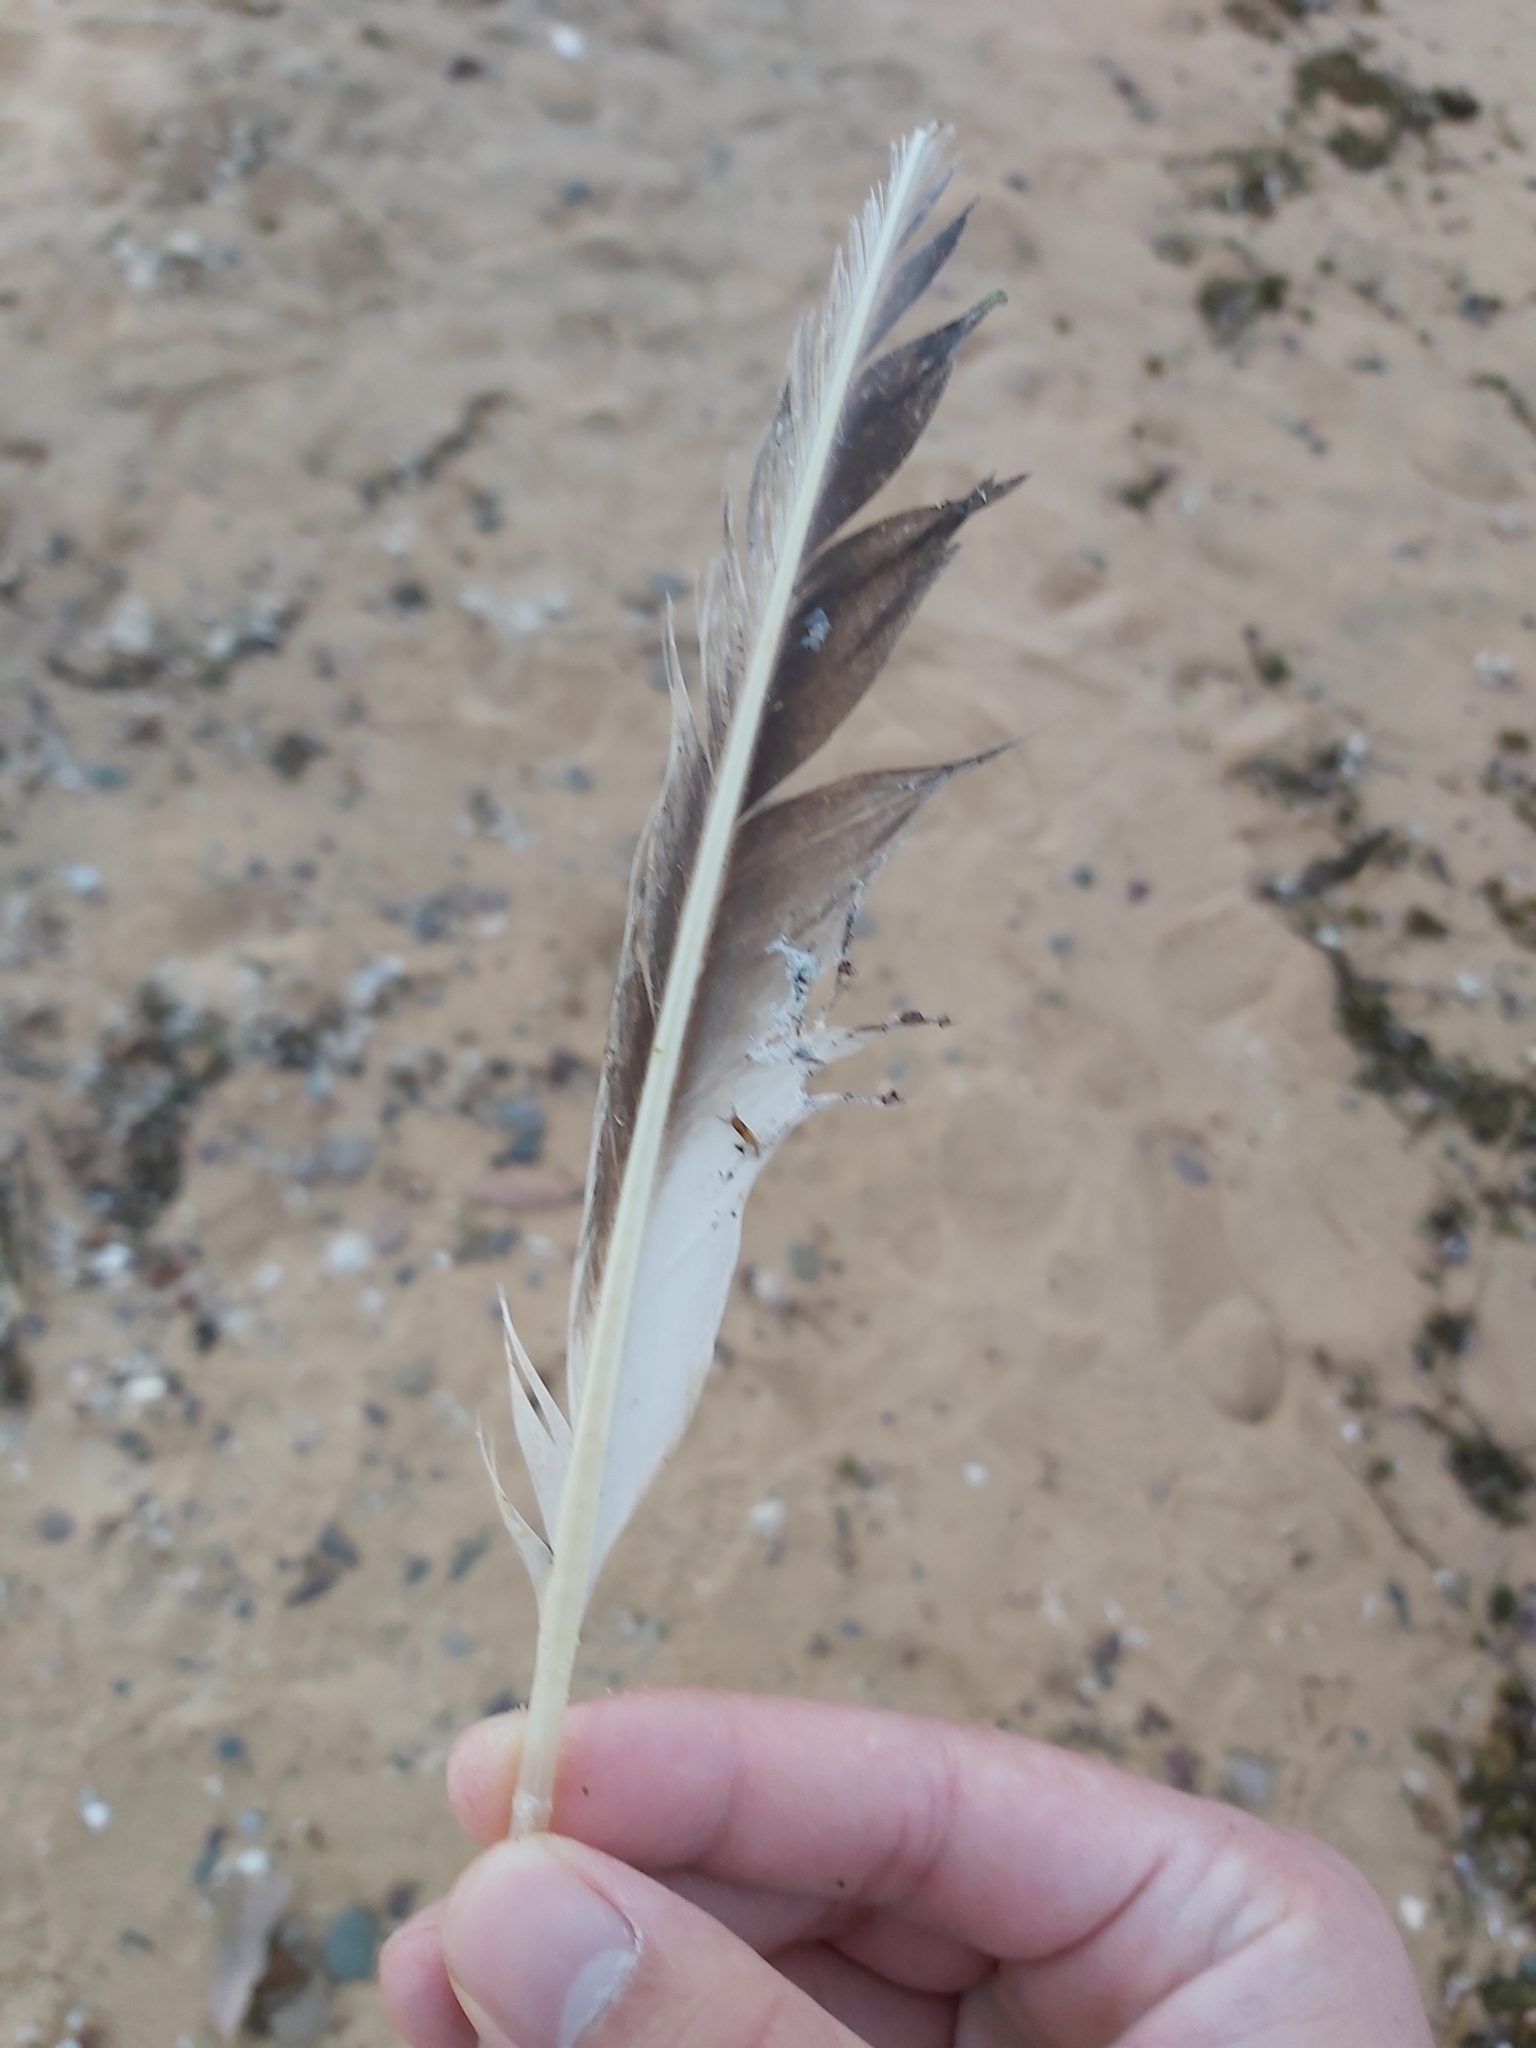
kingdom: Animalia
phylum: Chordata
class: Aves
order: Suliformes
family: Sulidae
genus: Morus
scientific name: Morus serrator
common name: Australasian gannet
